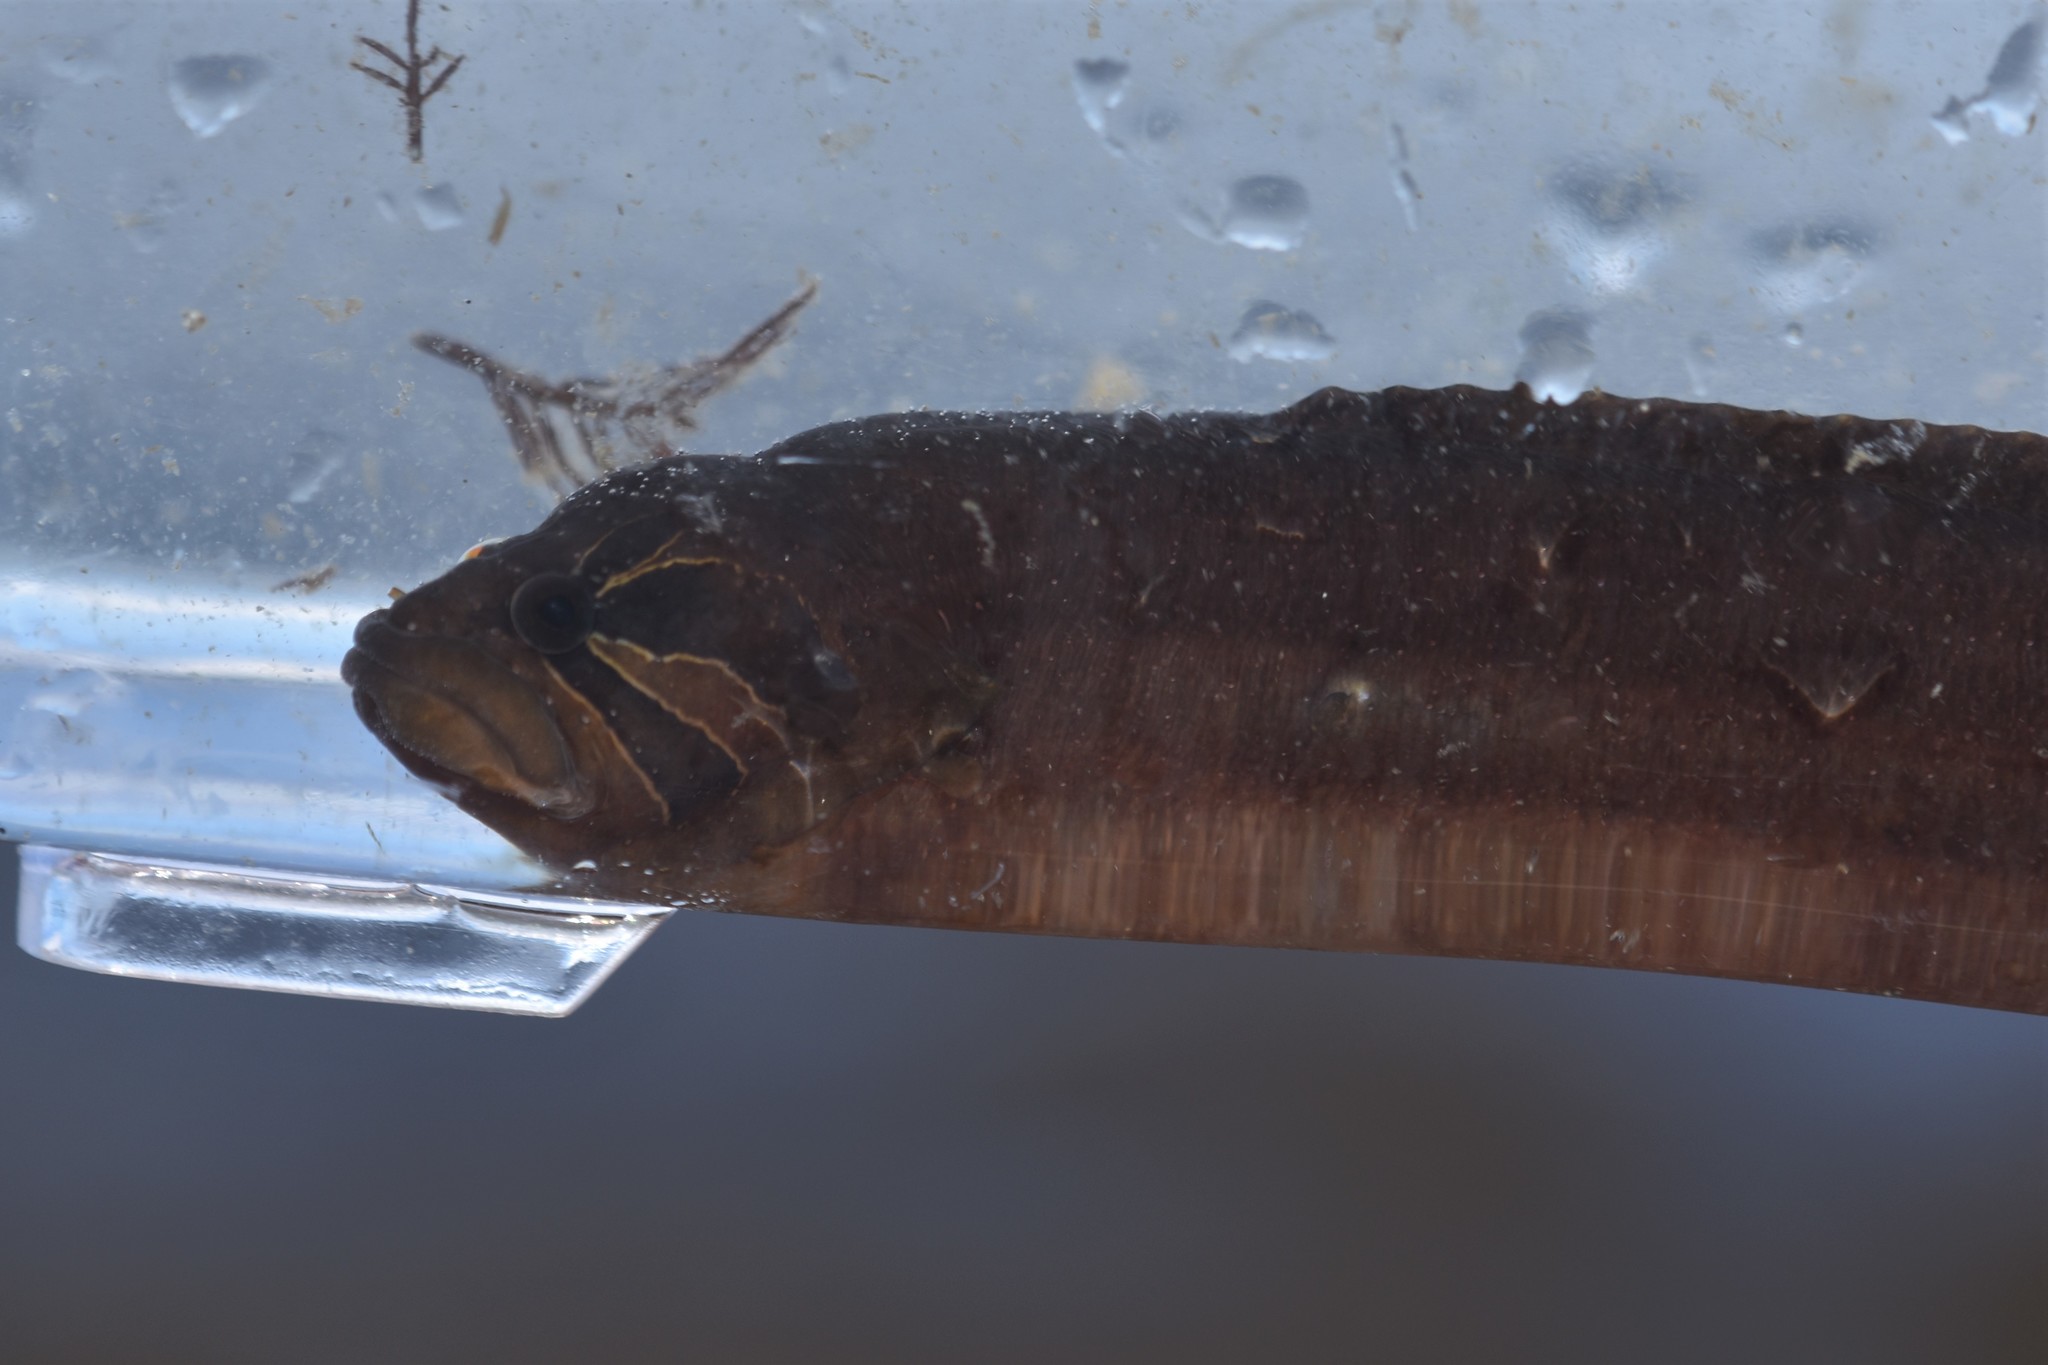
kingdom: Animalia
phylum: Chordata
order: Perciformes
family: Stichaeidae
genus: Xiphister
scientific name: Xiphister atropurpureus
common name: Black prickleback
